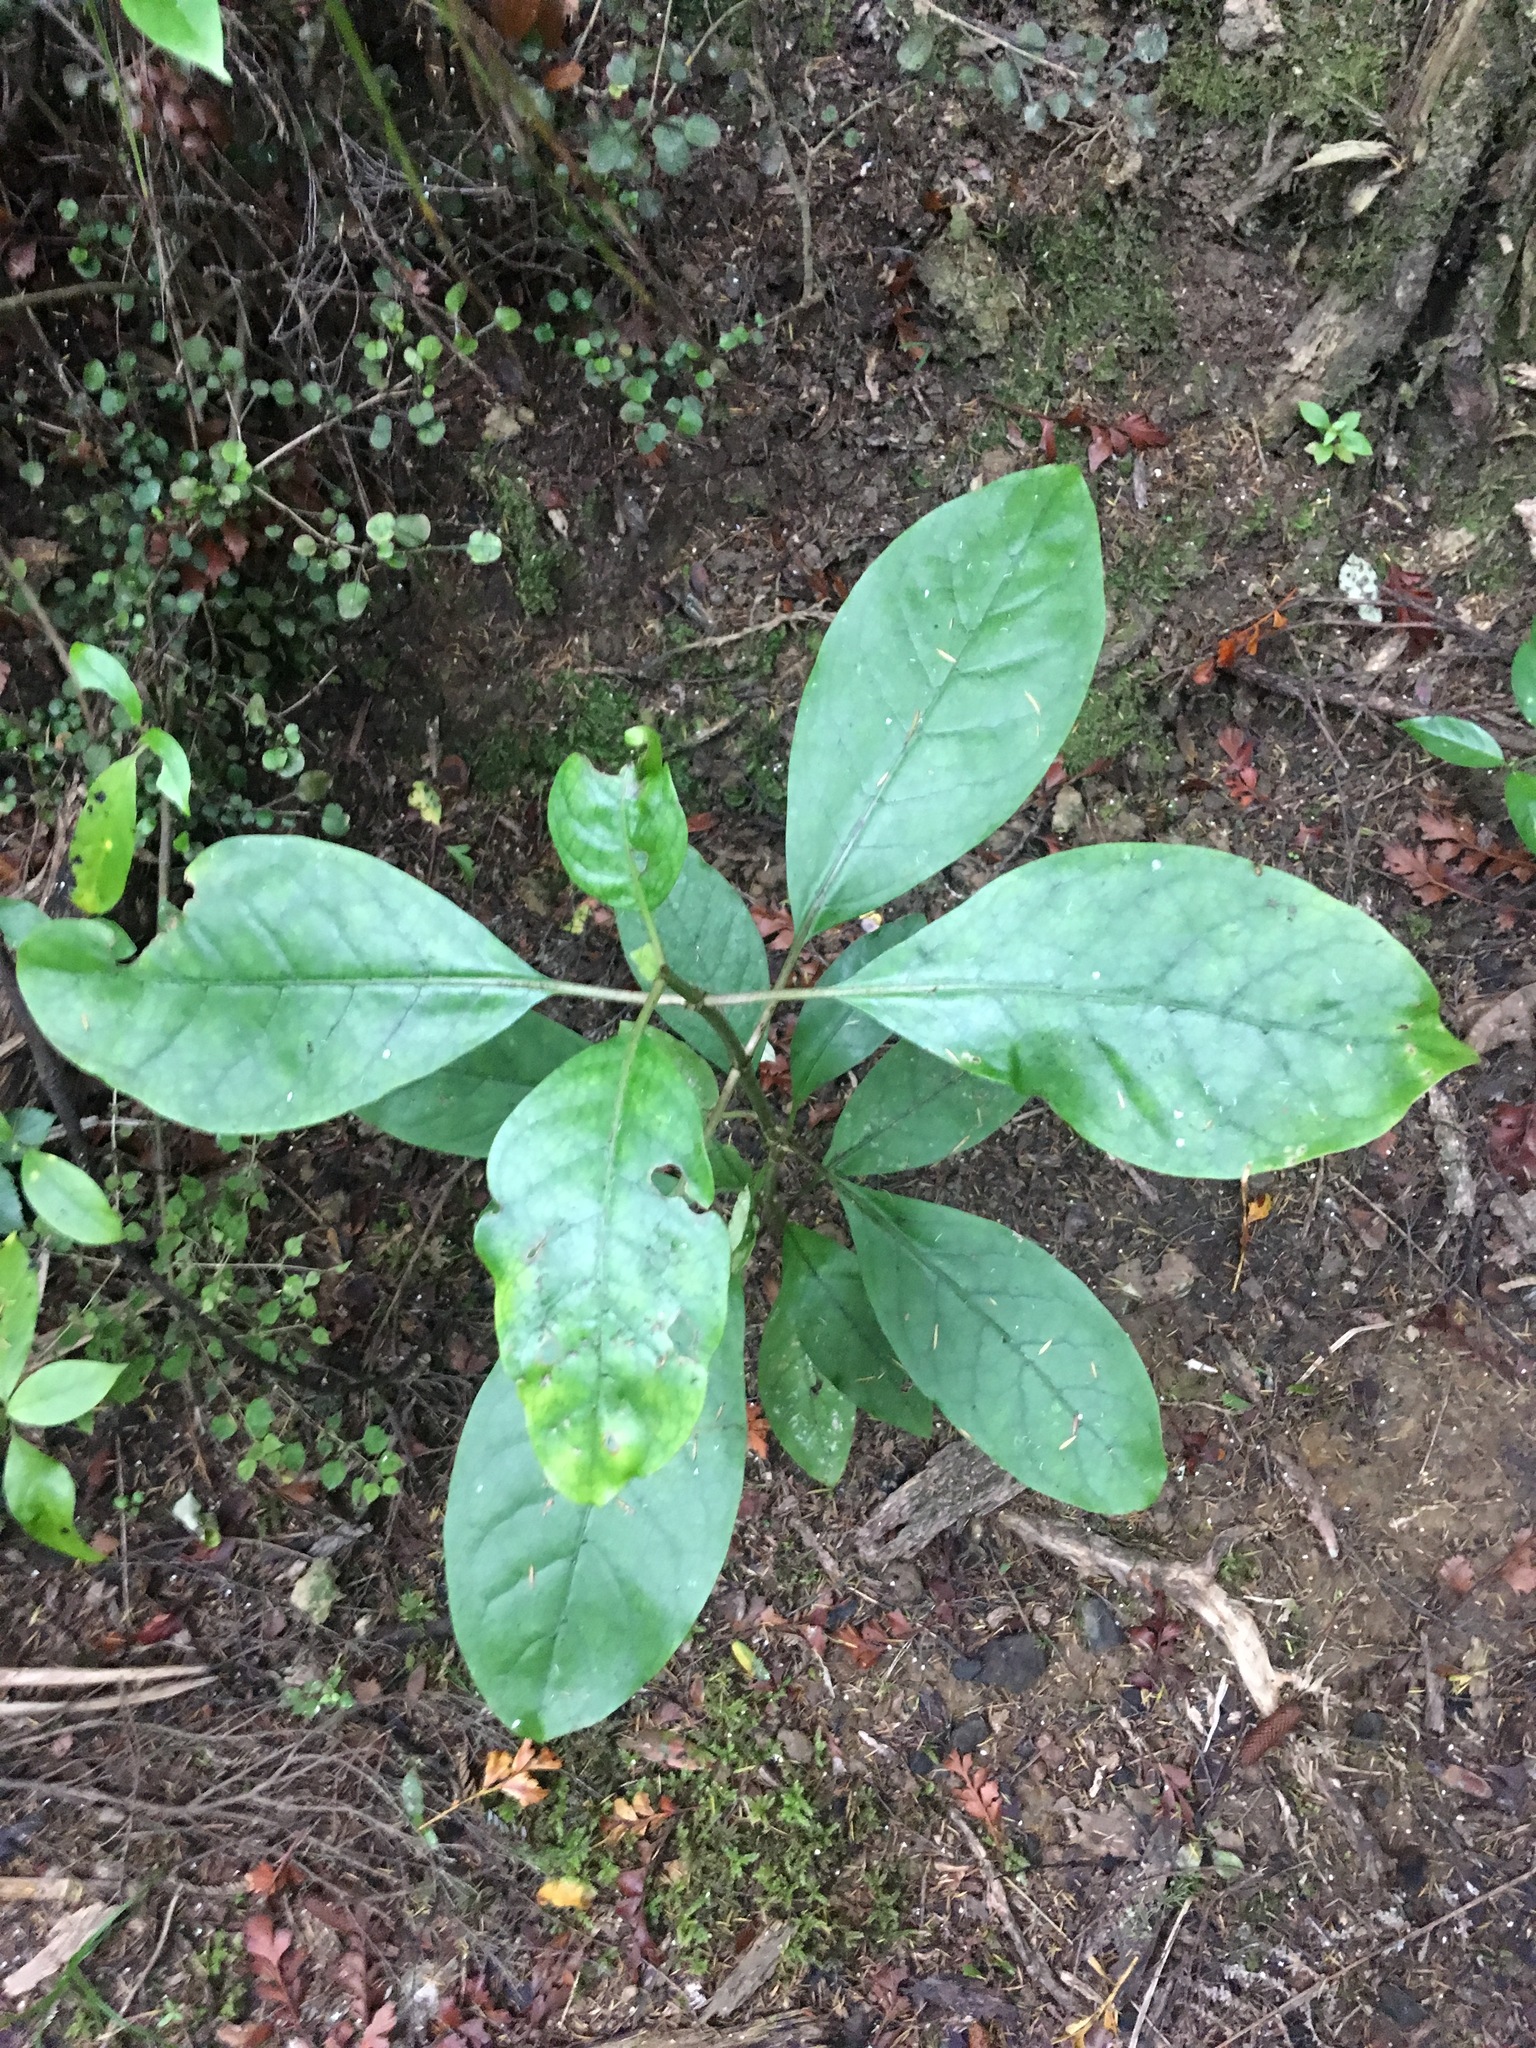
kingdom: Plantae
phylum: Tracheophyta
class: Magnoliopsida
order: Gentianales
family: Rubiaceae
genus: Coprosma
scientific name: Coprosma autumnalis
